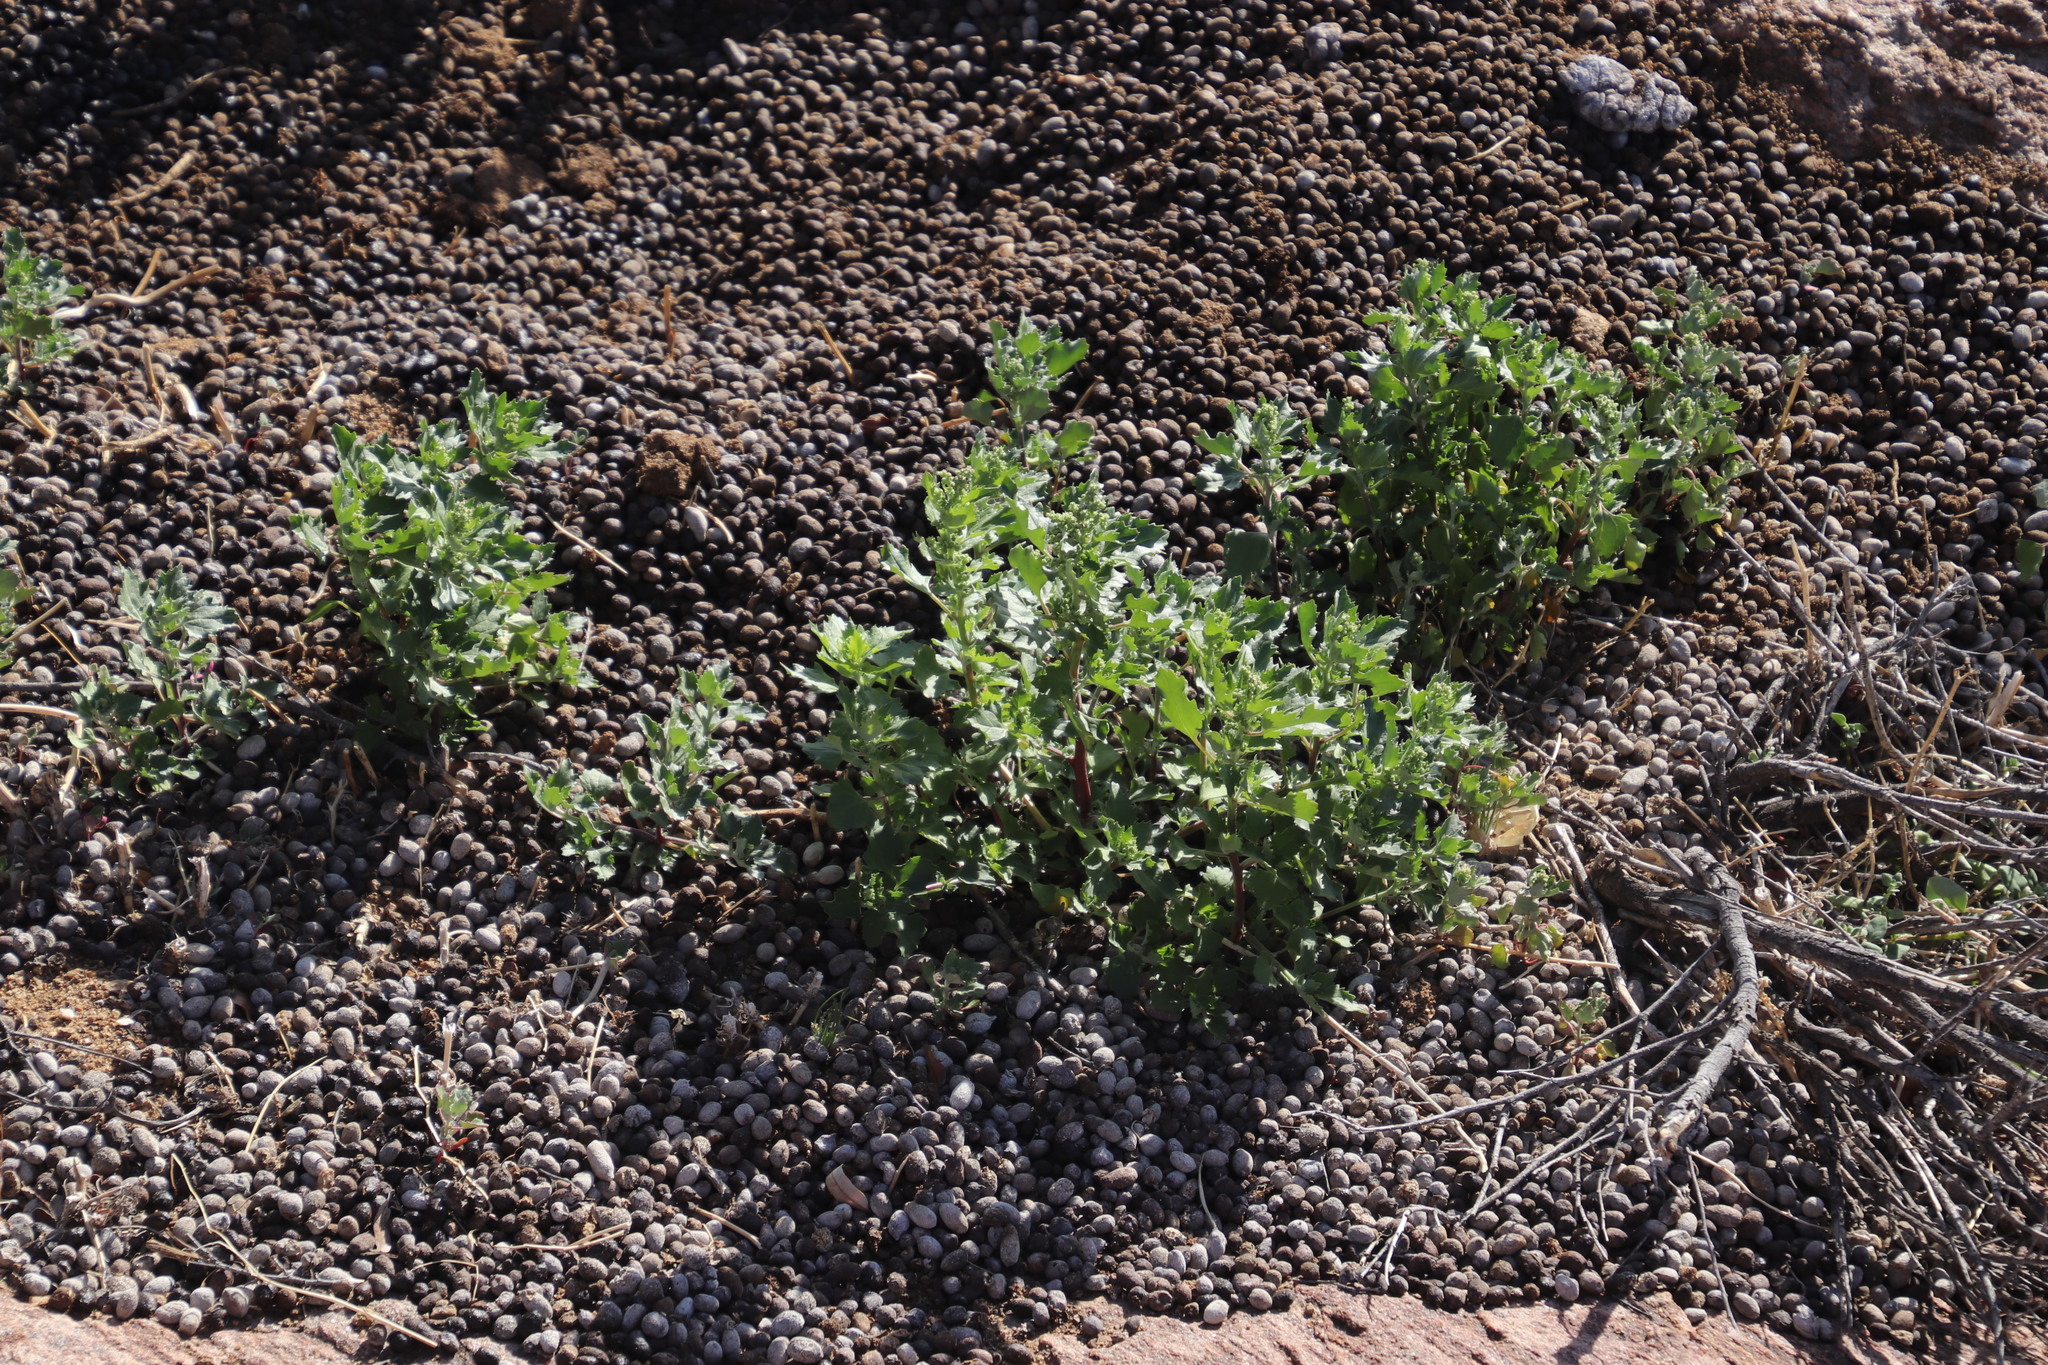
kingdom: Animalia
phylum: Chordata
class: Mammalia
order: Artiodactyla
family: Bovidae
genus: Oreotragus
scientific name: Oreotragus oreotragus
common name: Klipspringer
